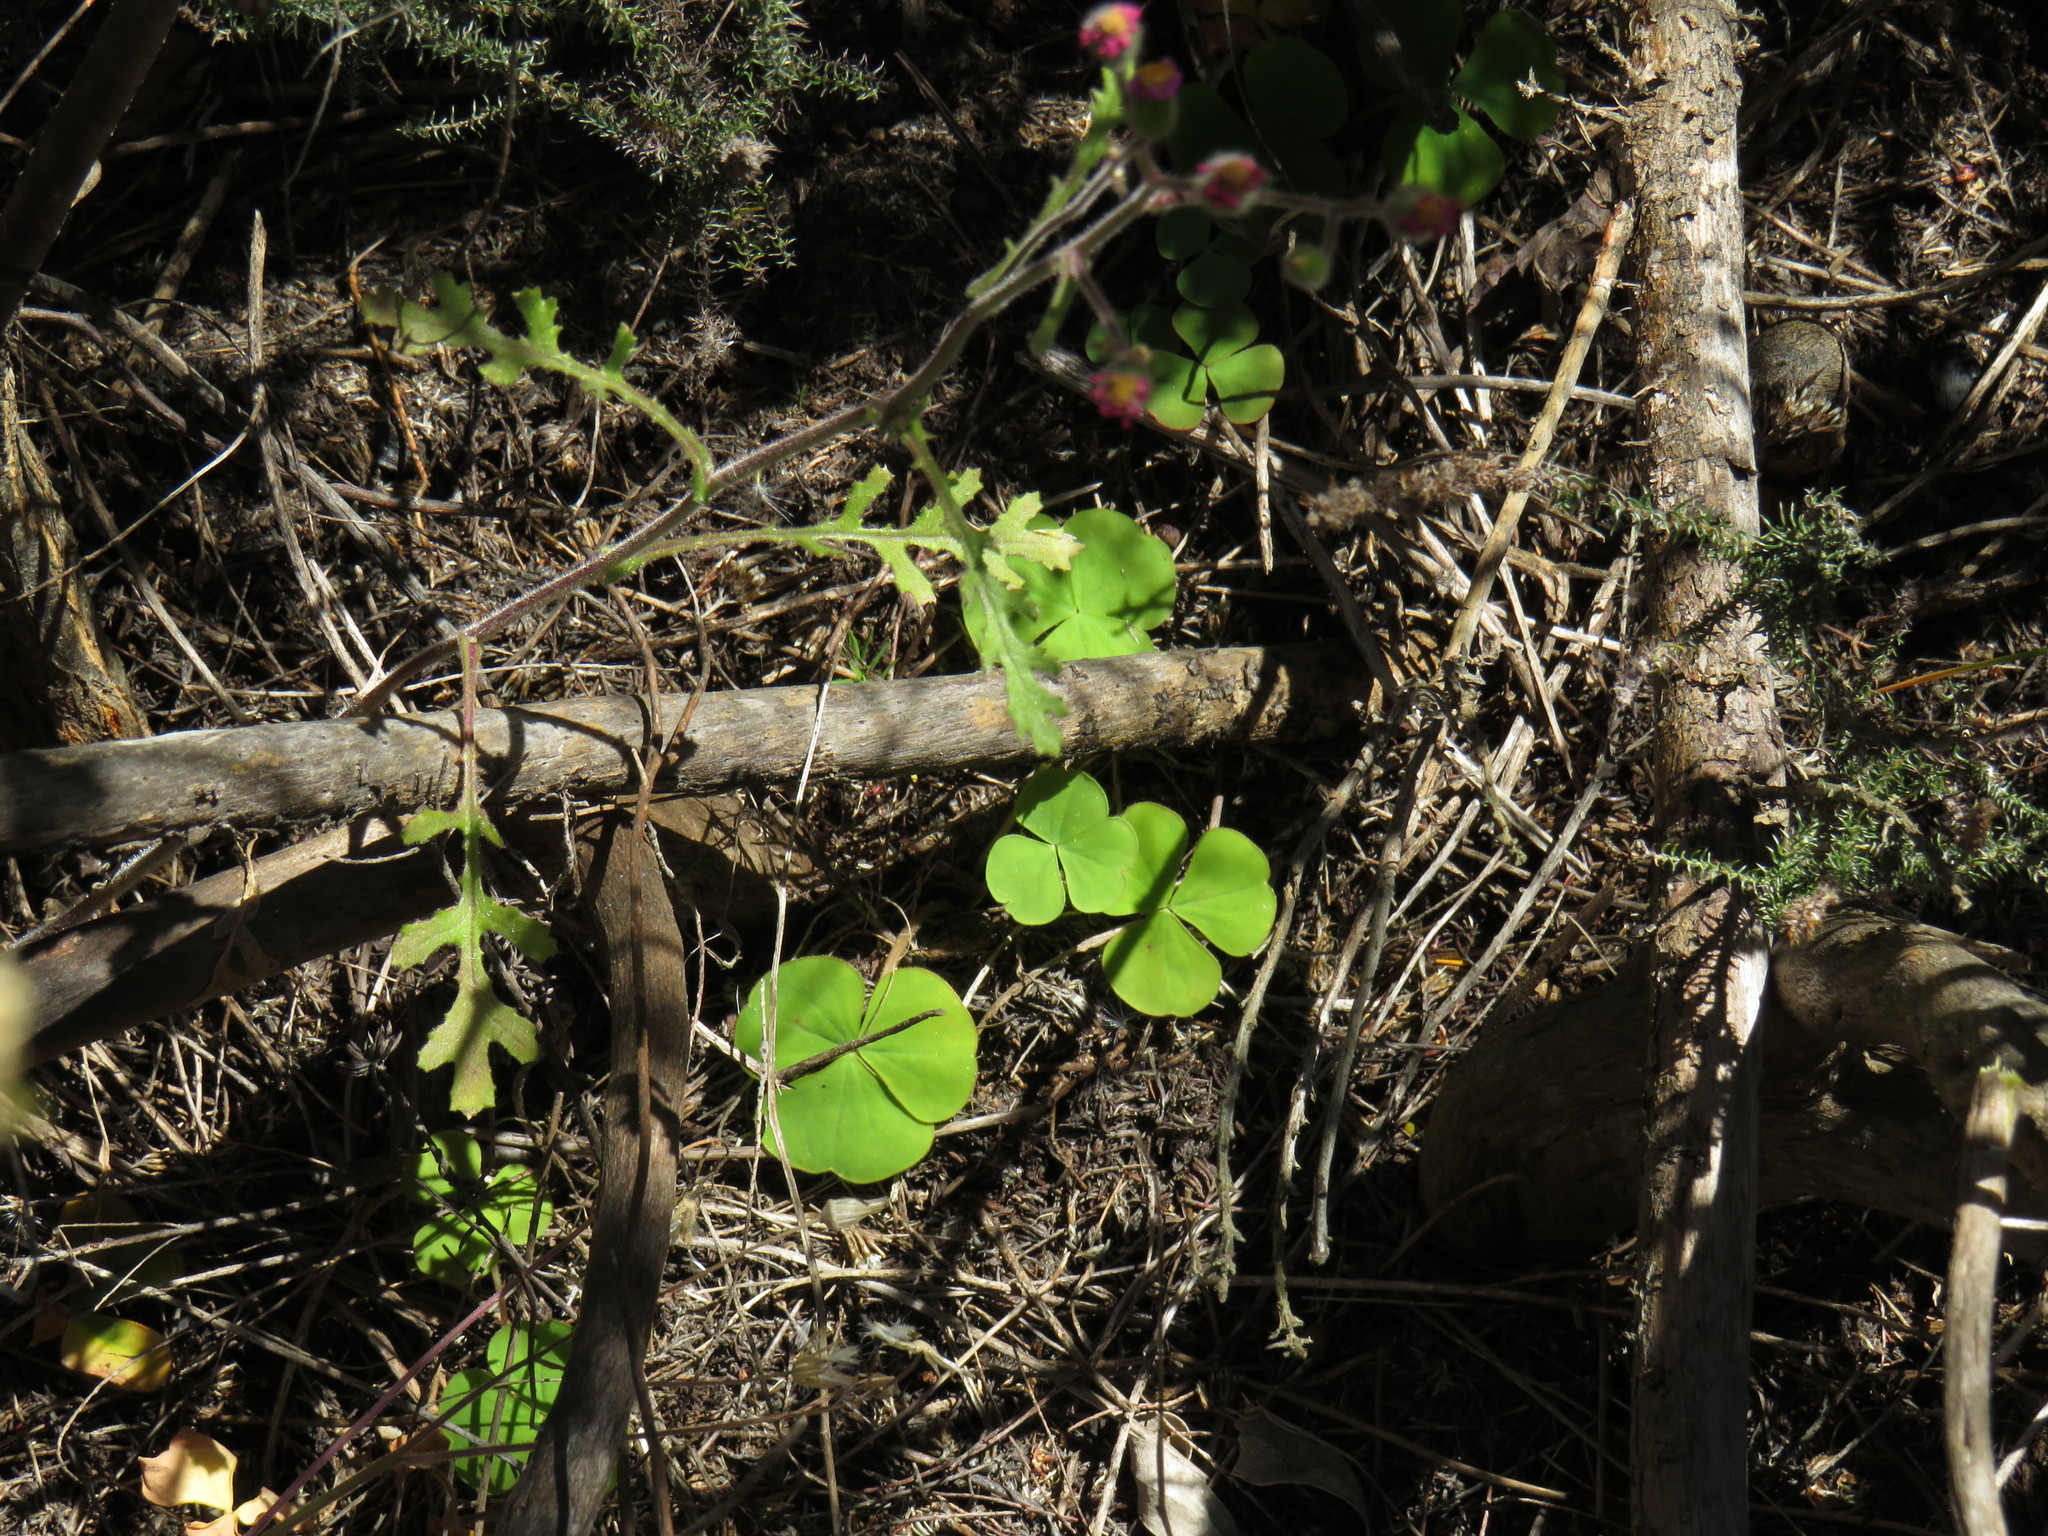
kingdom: Plantae
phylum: Tracheophyta
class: Magnoliopsida
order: Oxalidales
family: Oxalidaceae
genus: Oxalis
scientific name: Oxalis luteola
